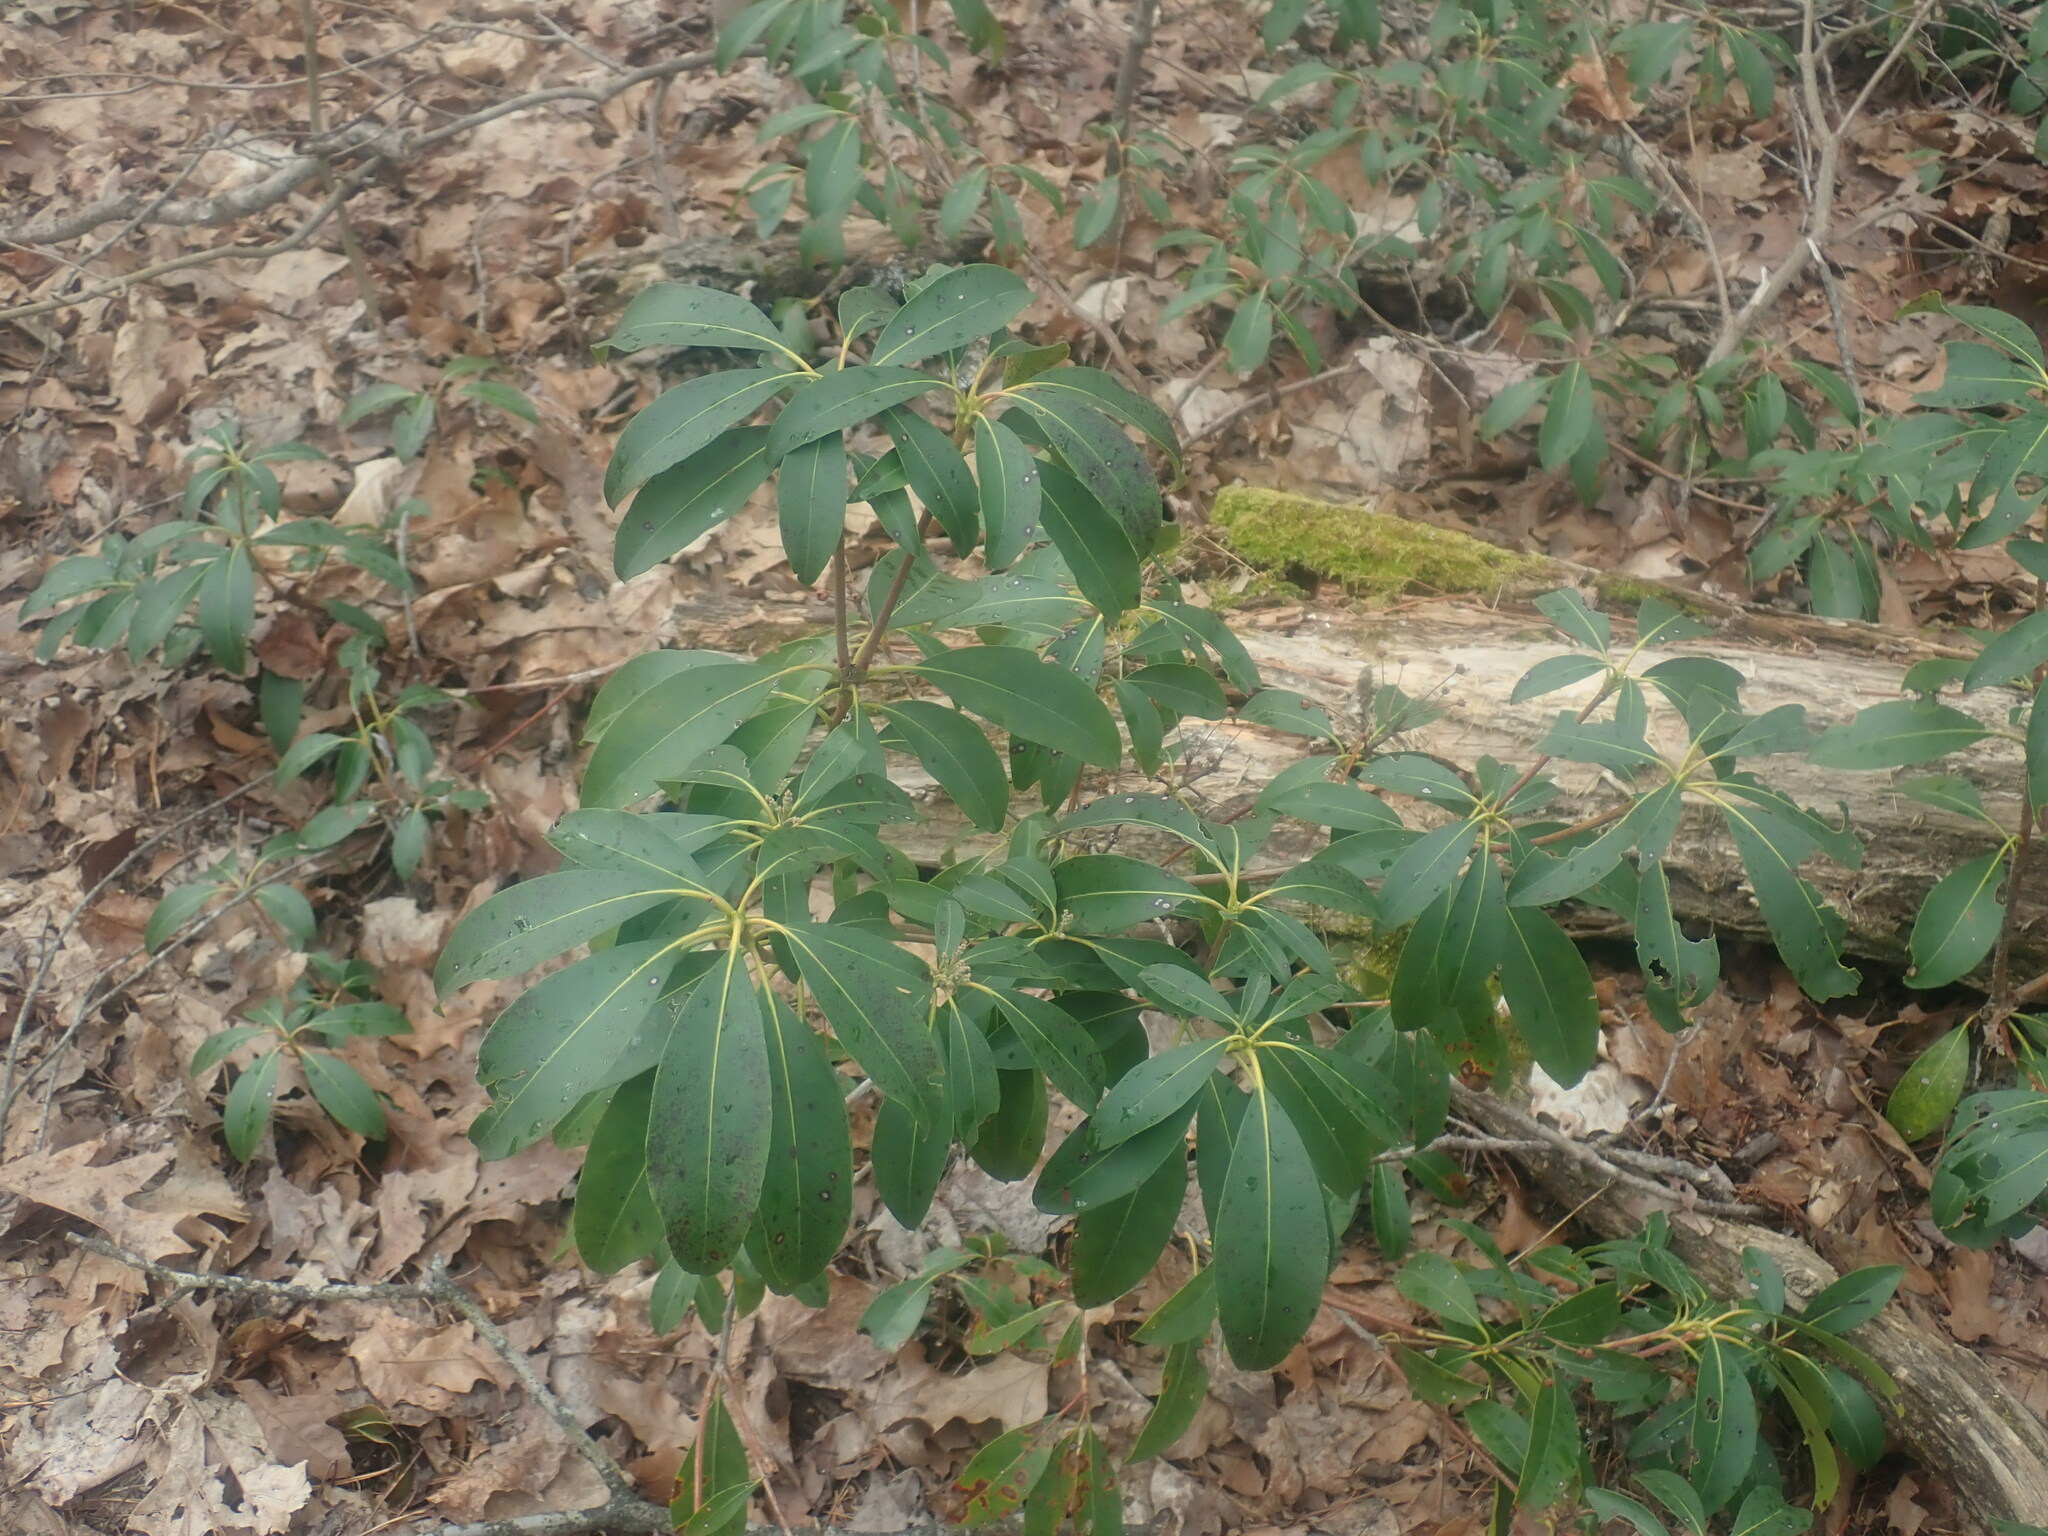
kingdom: Plantae
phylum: Tracheophyta
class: Magnoliopsida
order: Ericales
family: Ericaceae
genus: Kalmia
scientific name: Kalmia latifolia
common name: Mountain-laurel
